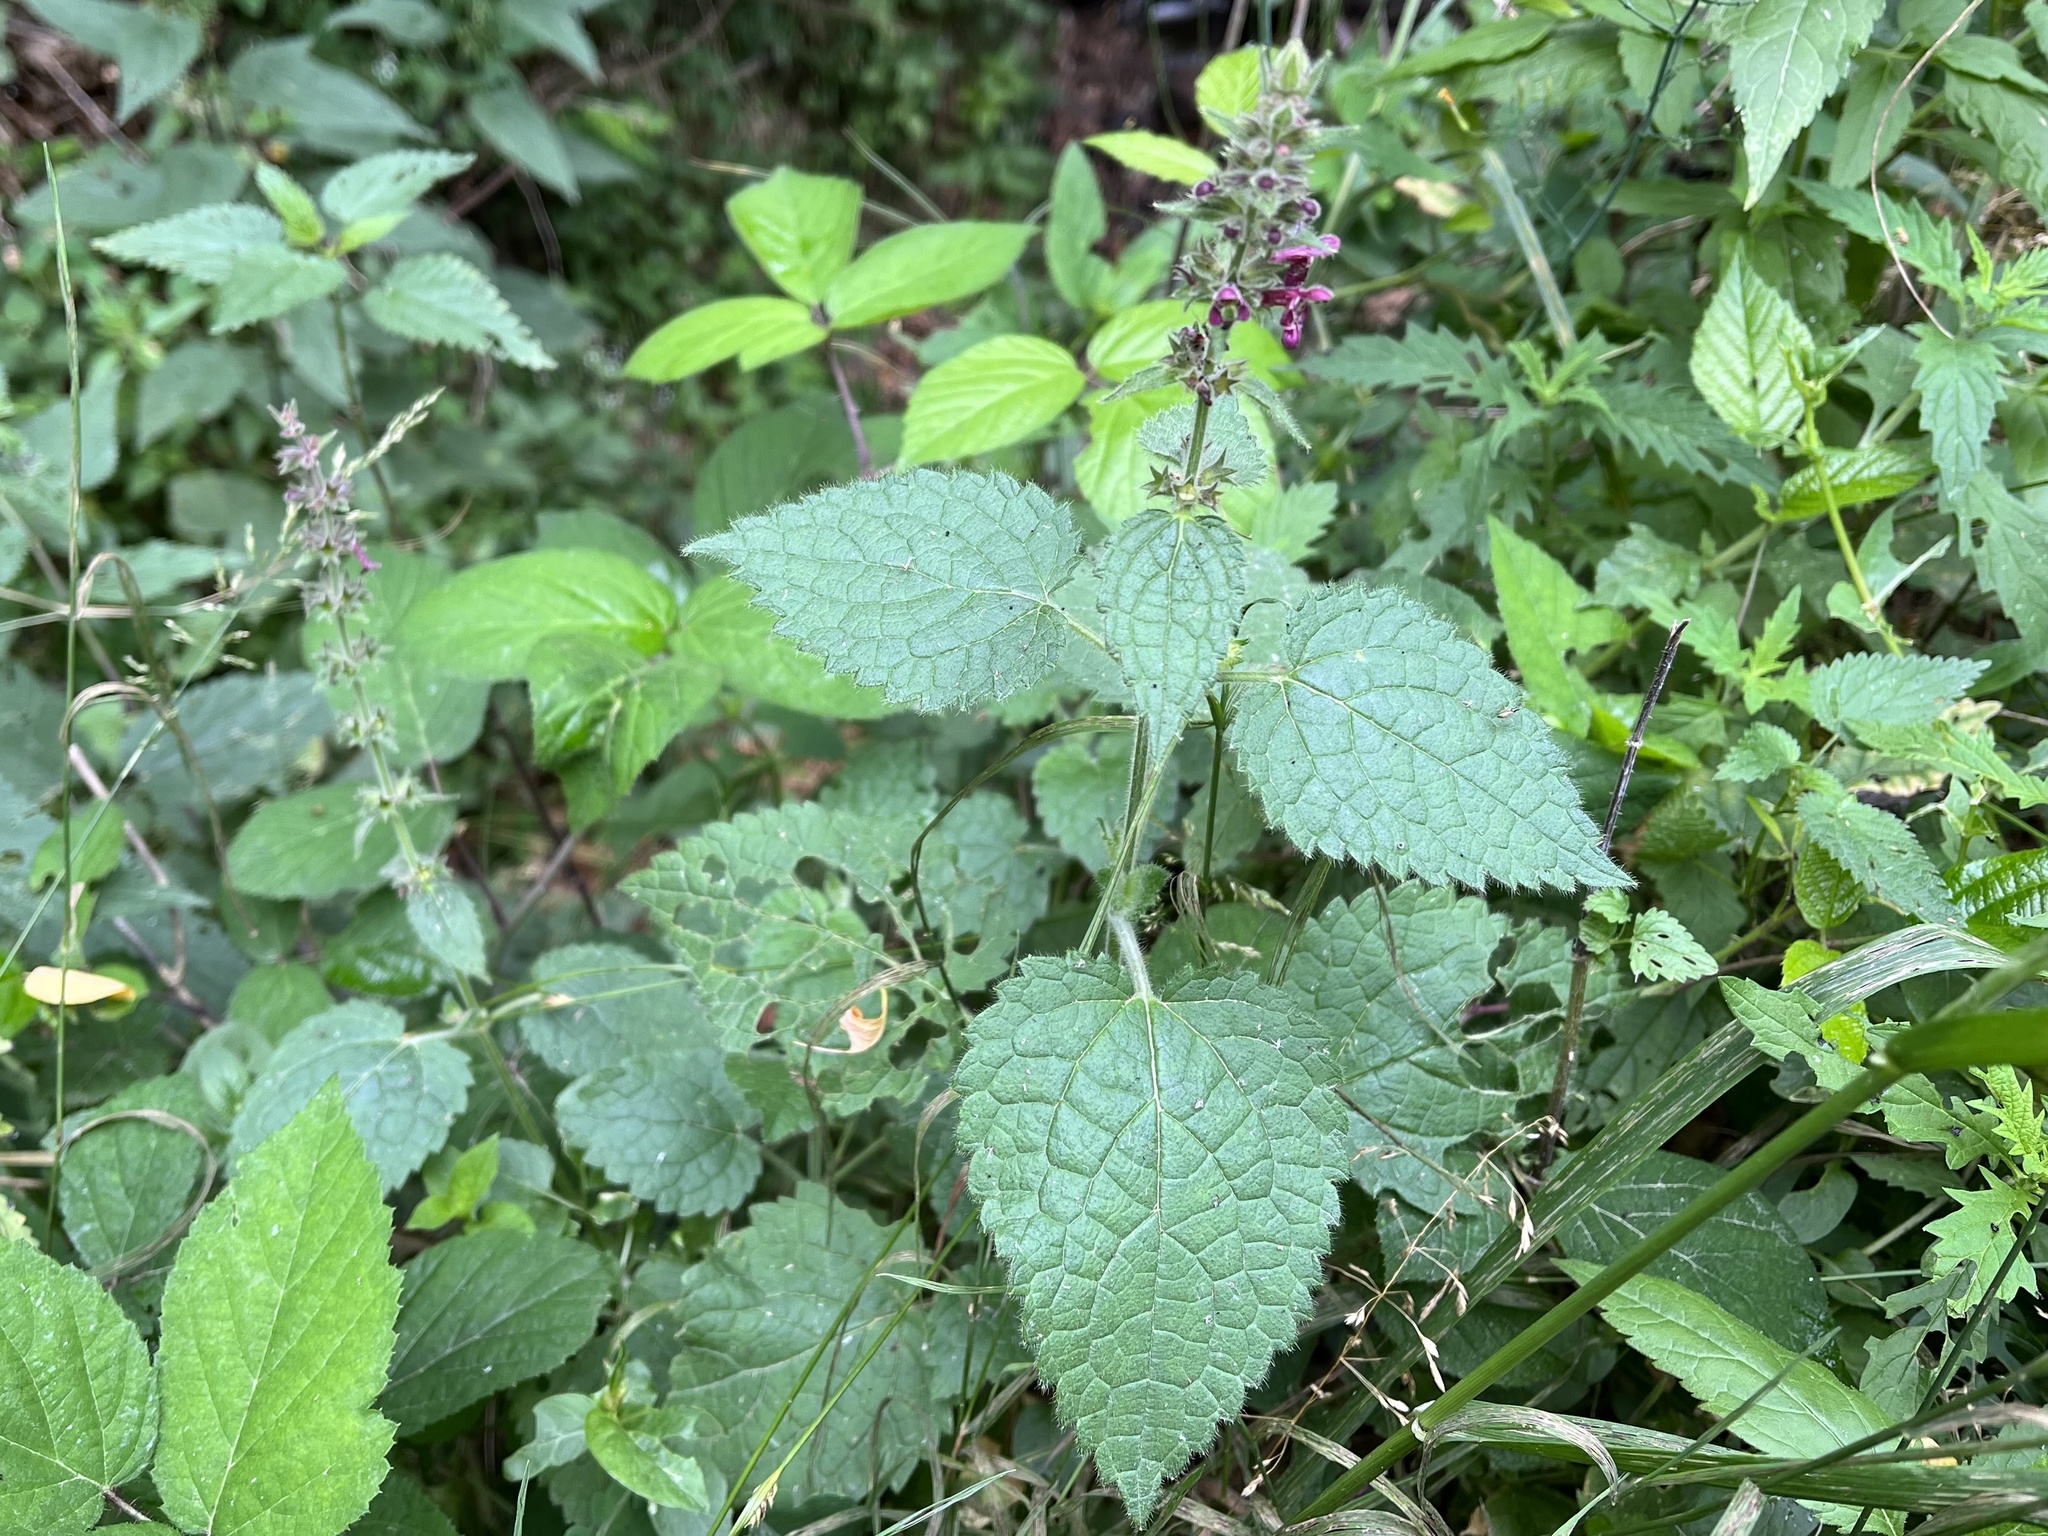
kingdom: Plantae
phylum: Tracheophyta
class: Magnoliopsida
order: Lamiales
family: Lamiaceae
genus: Stachys
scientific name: Stachys sylvatica
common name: Hedge woundwort
